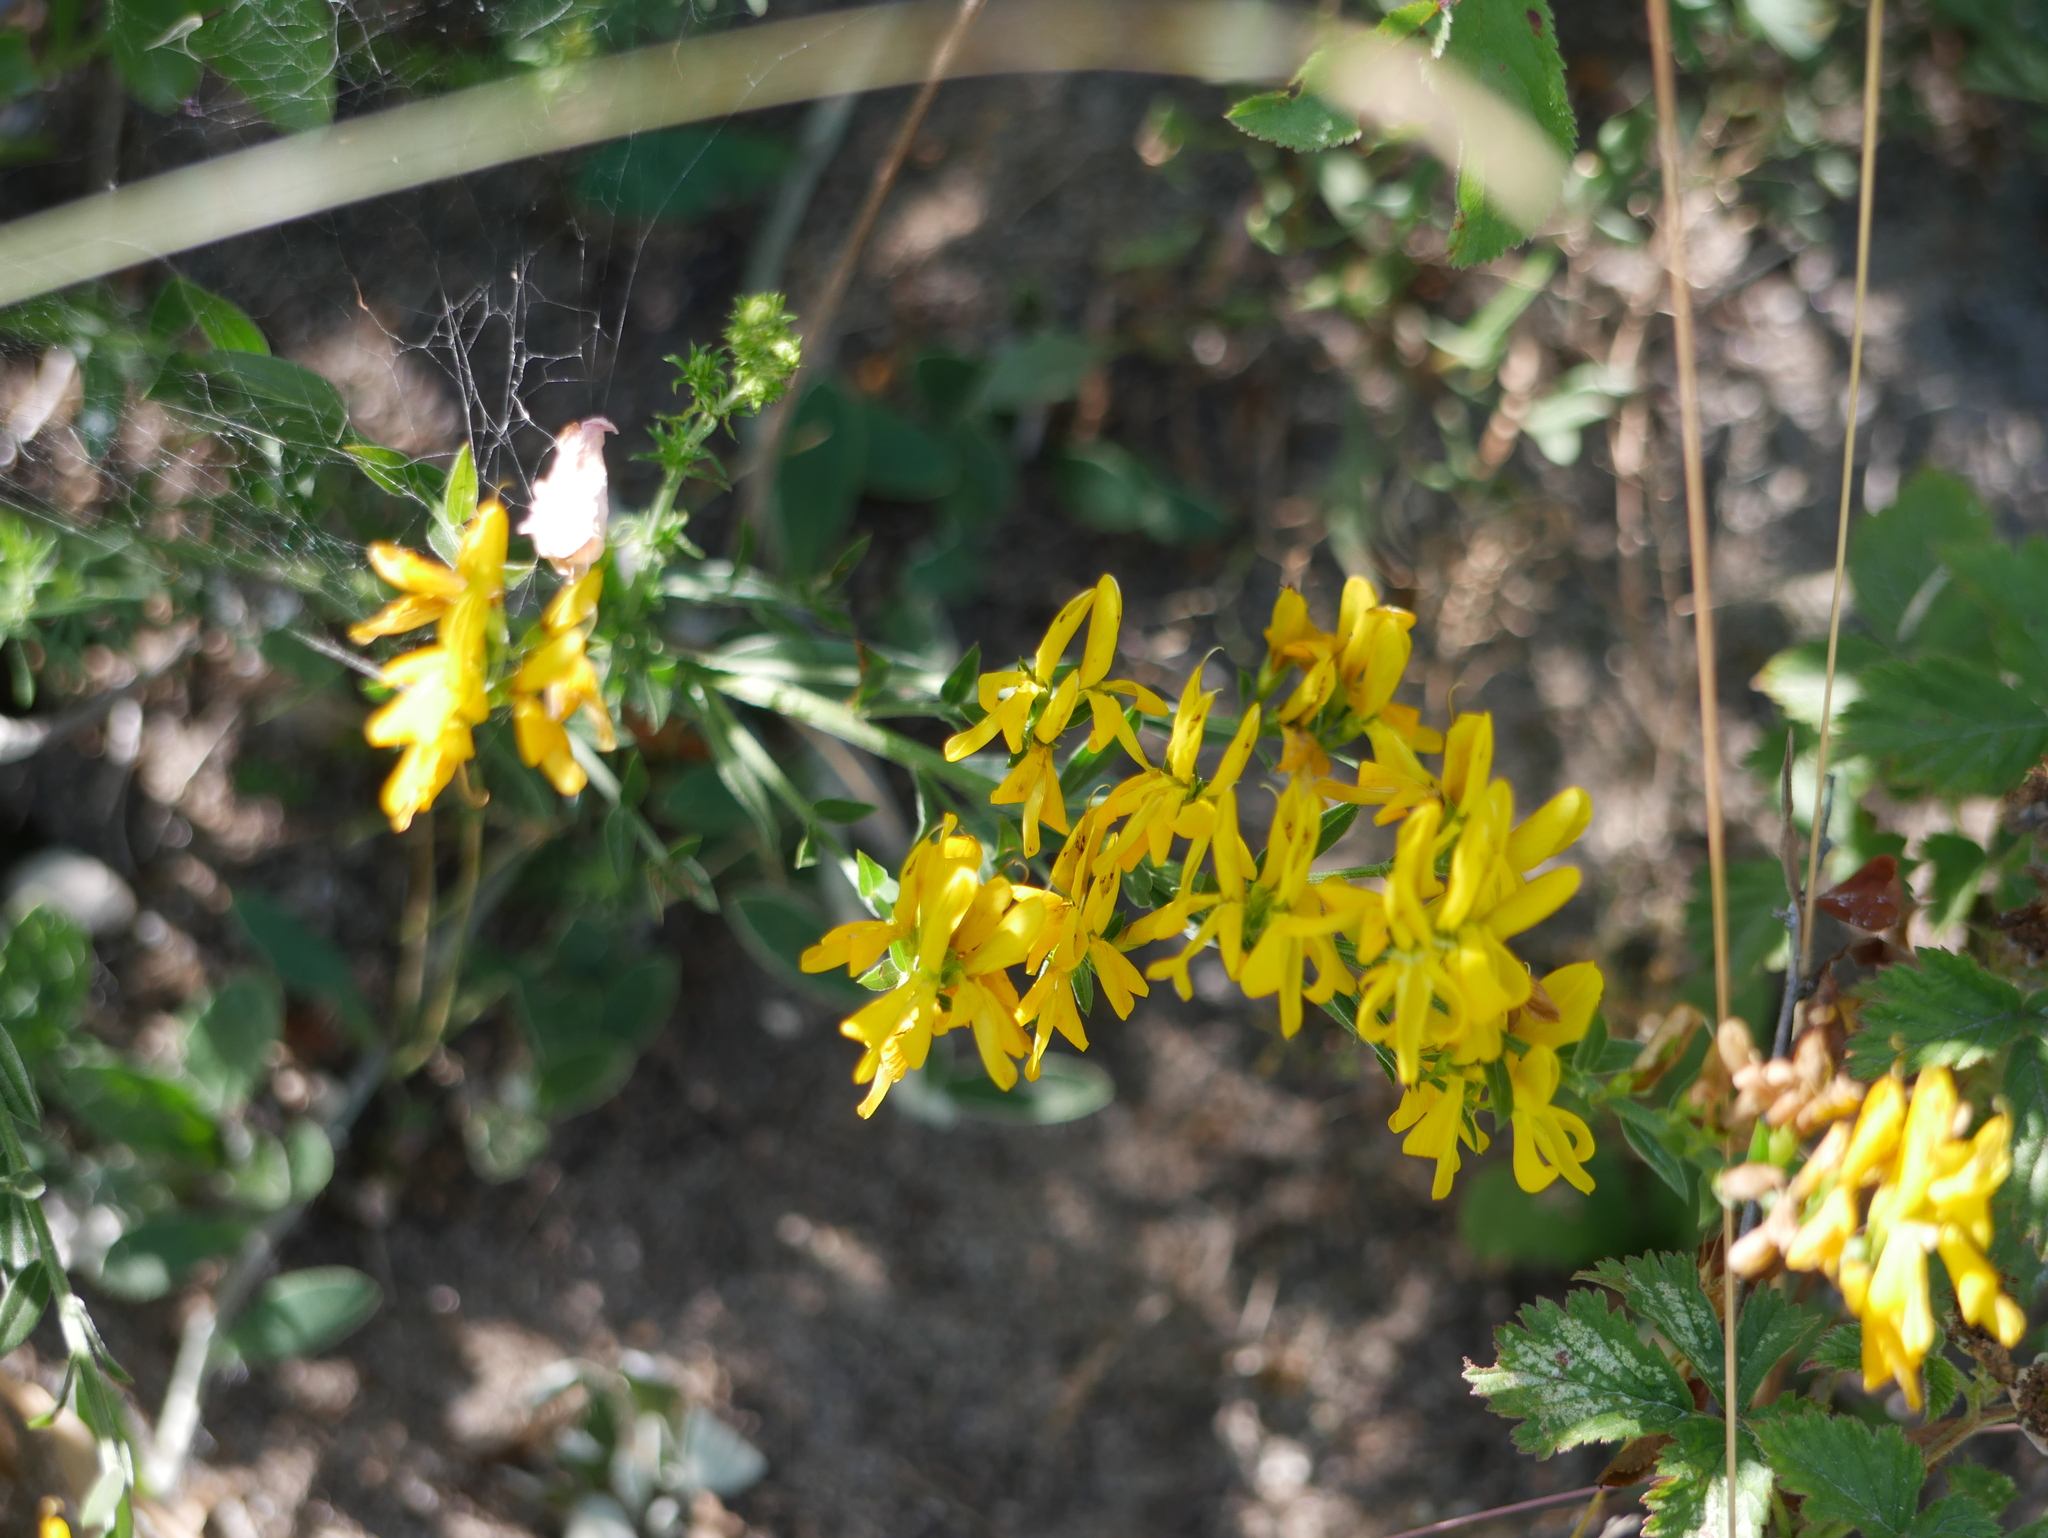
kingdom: Plantae
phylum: Tracheophyta
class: Magnoliopsida
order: Fabales
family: Fabaceae
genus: Genista
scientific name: Genista tinctoria
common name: Dyer's greenweed
